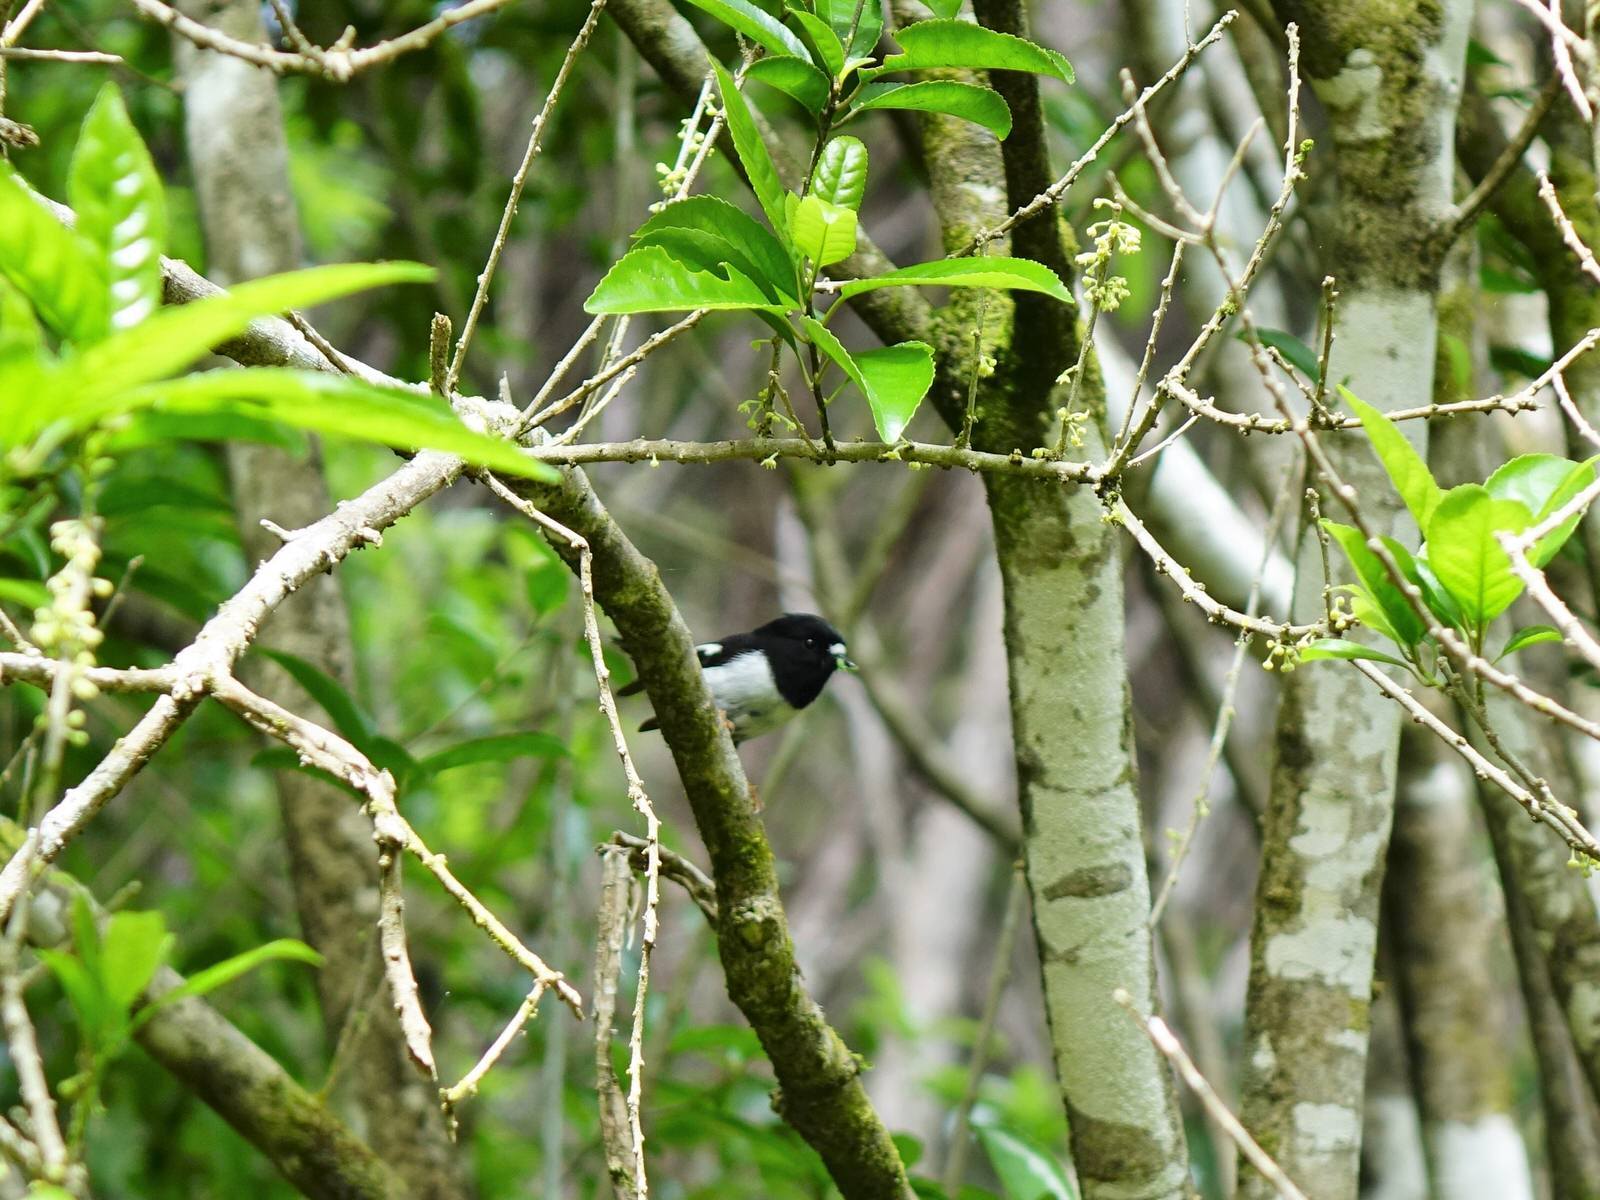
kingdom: Animalia
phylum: Chordata
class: Aves
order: Passeriformes
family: Petroicidae
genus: Petroica
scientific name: Petroica macrocephala
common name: Tomtit
